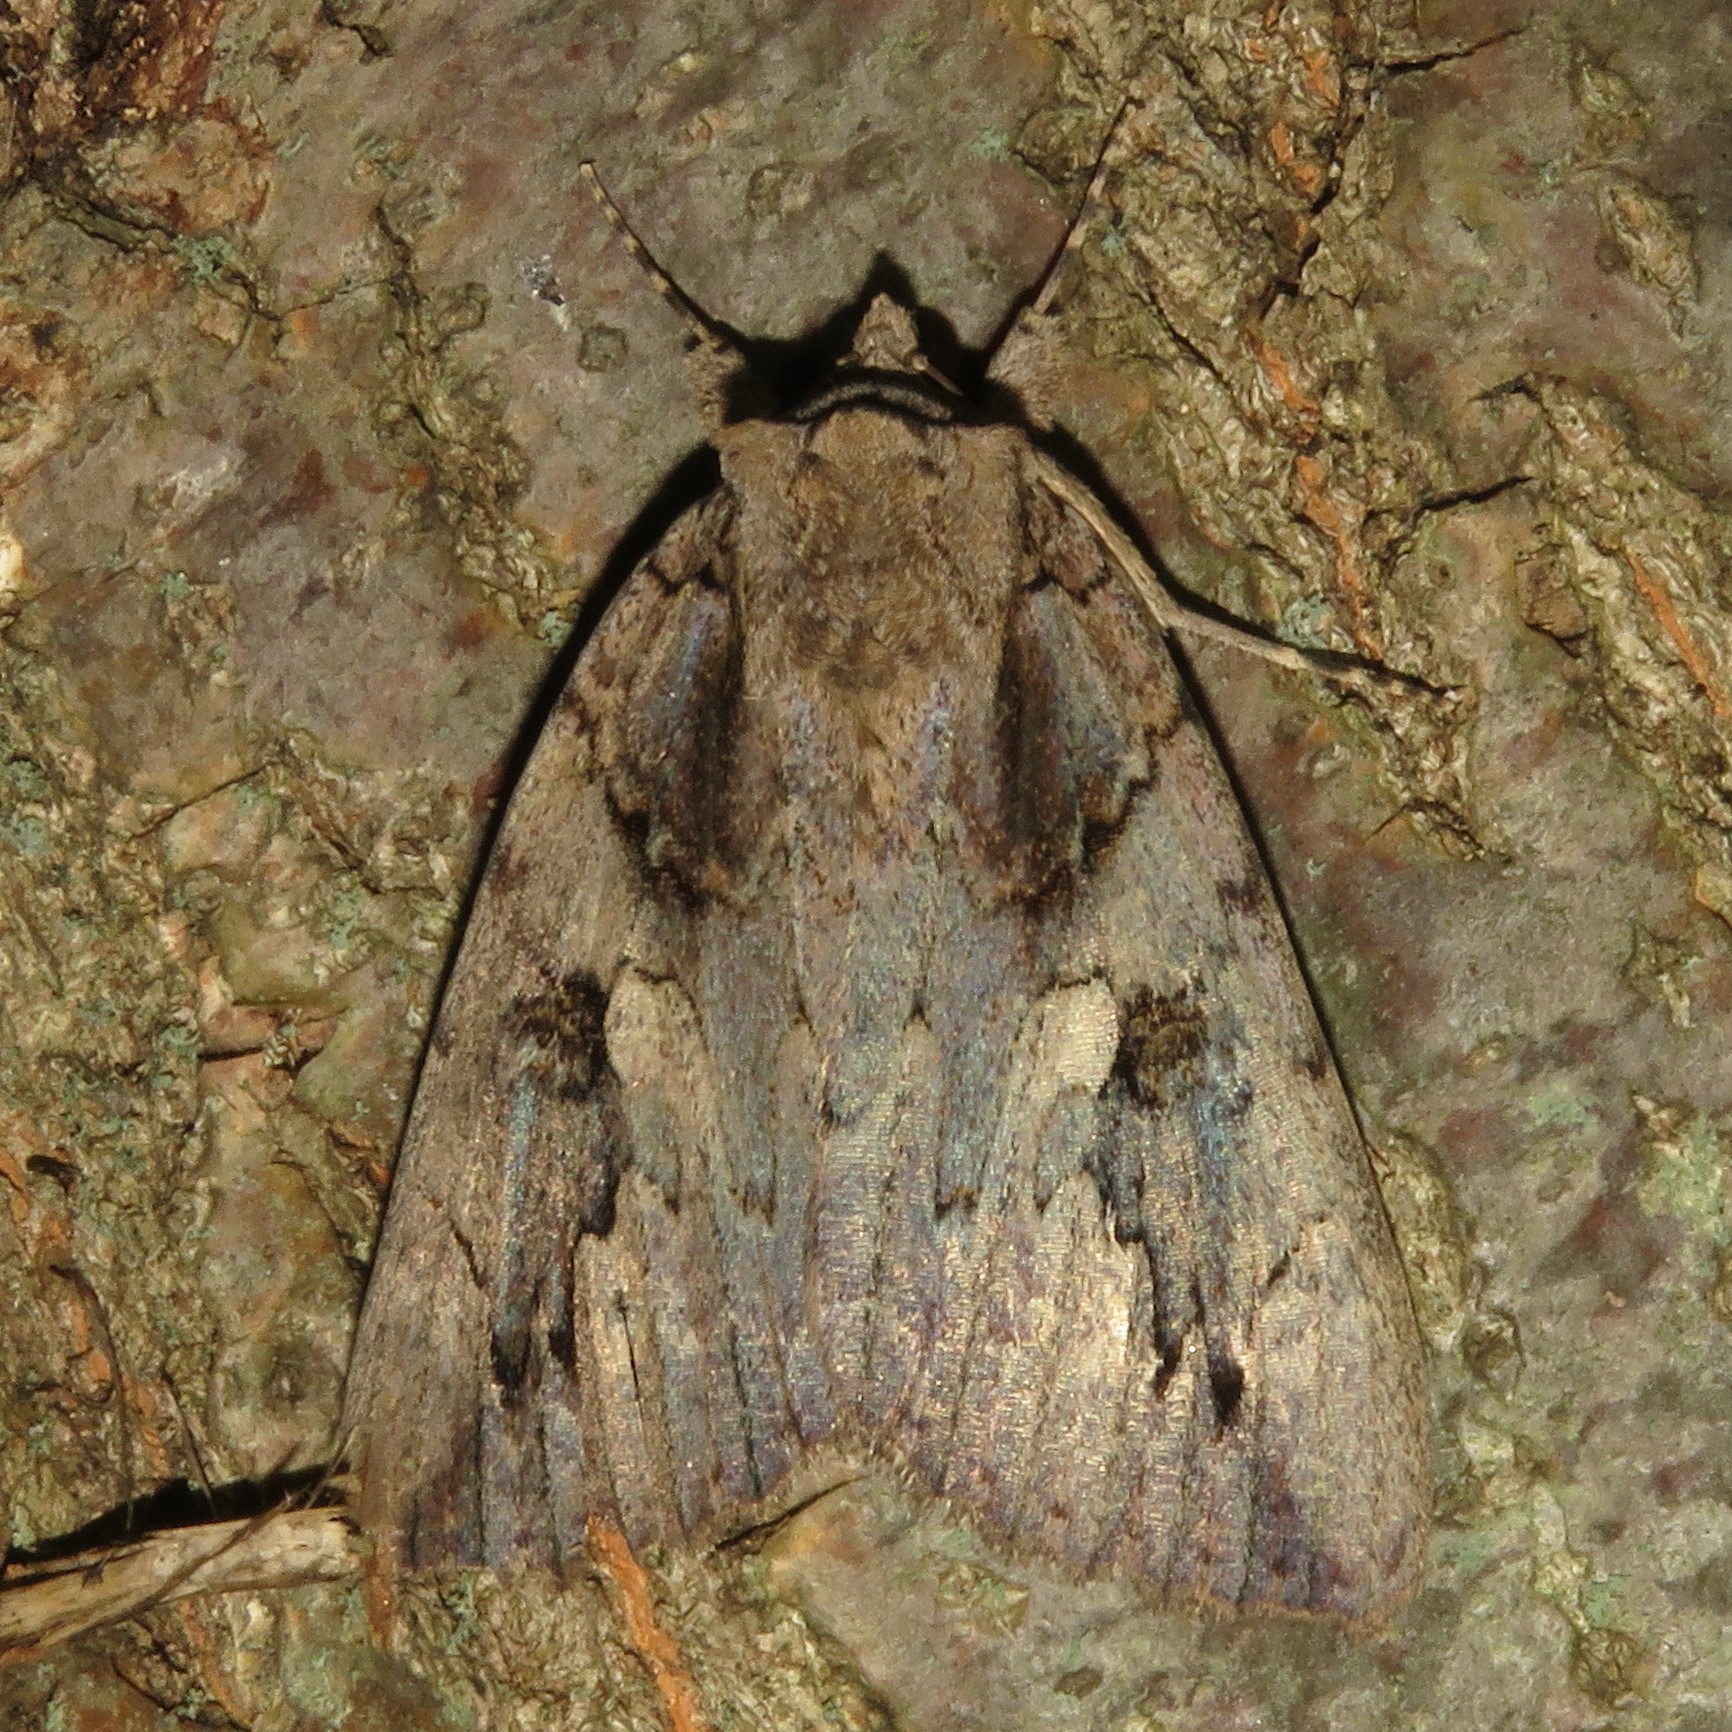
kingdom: Animalia
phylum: Arthropoda
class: Insecta
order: Lepidoptera
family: Erebidae
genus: Catocala
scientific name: Catocala amatrix
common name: Sweetheart underwing
